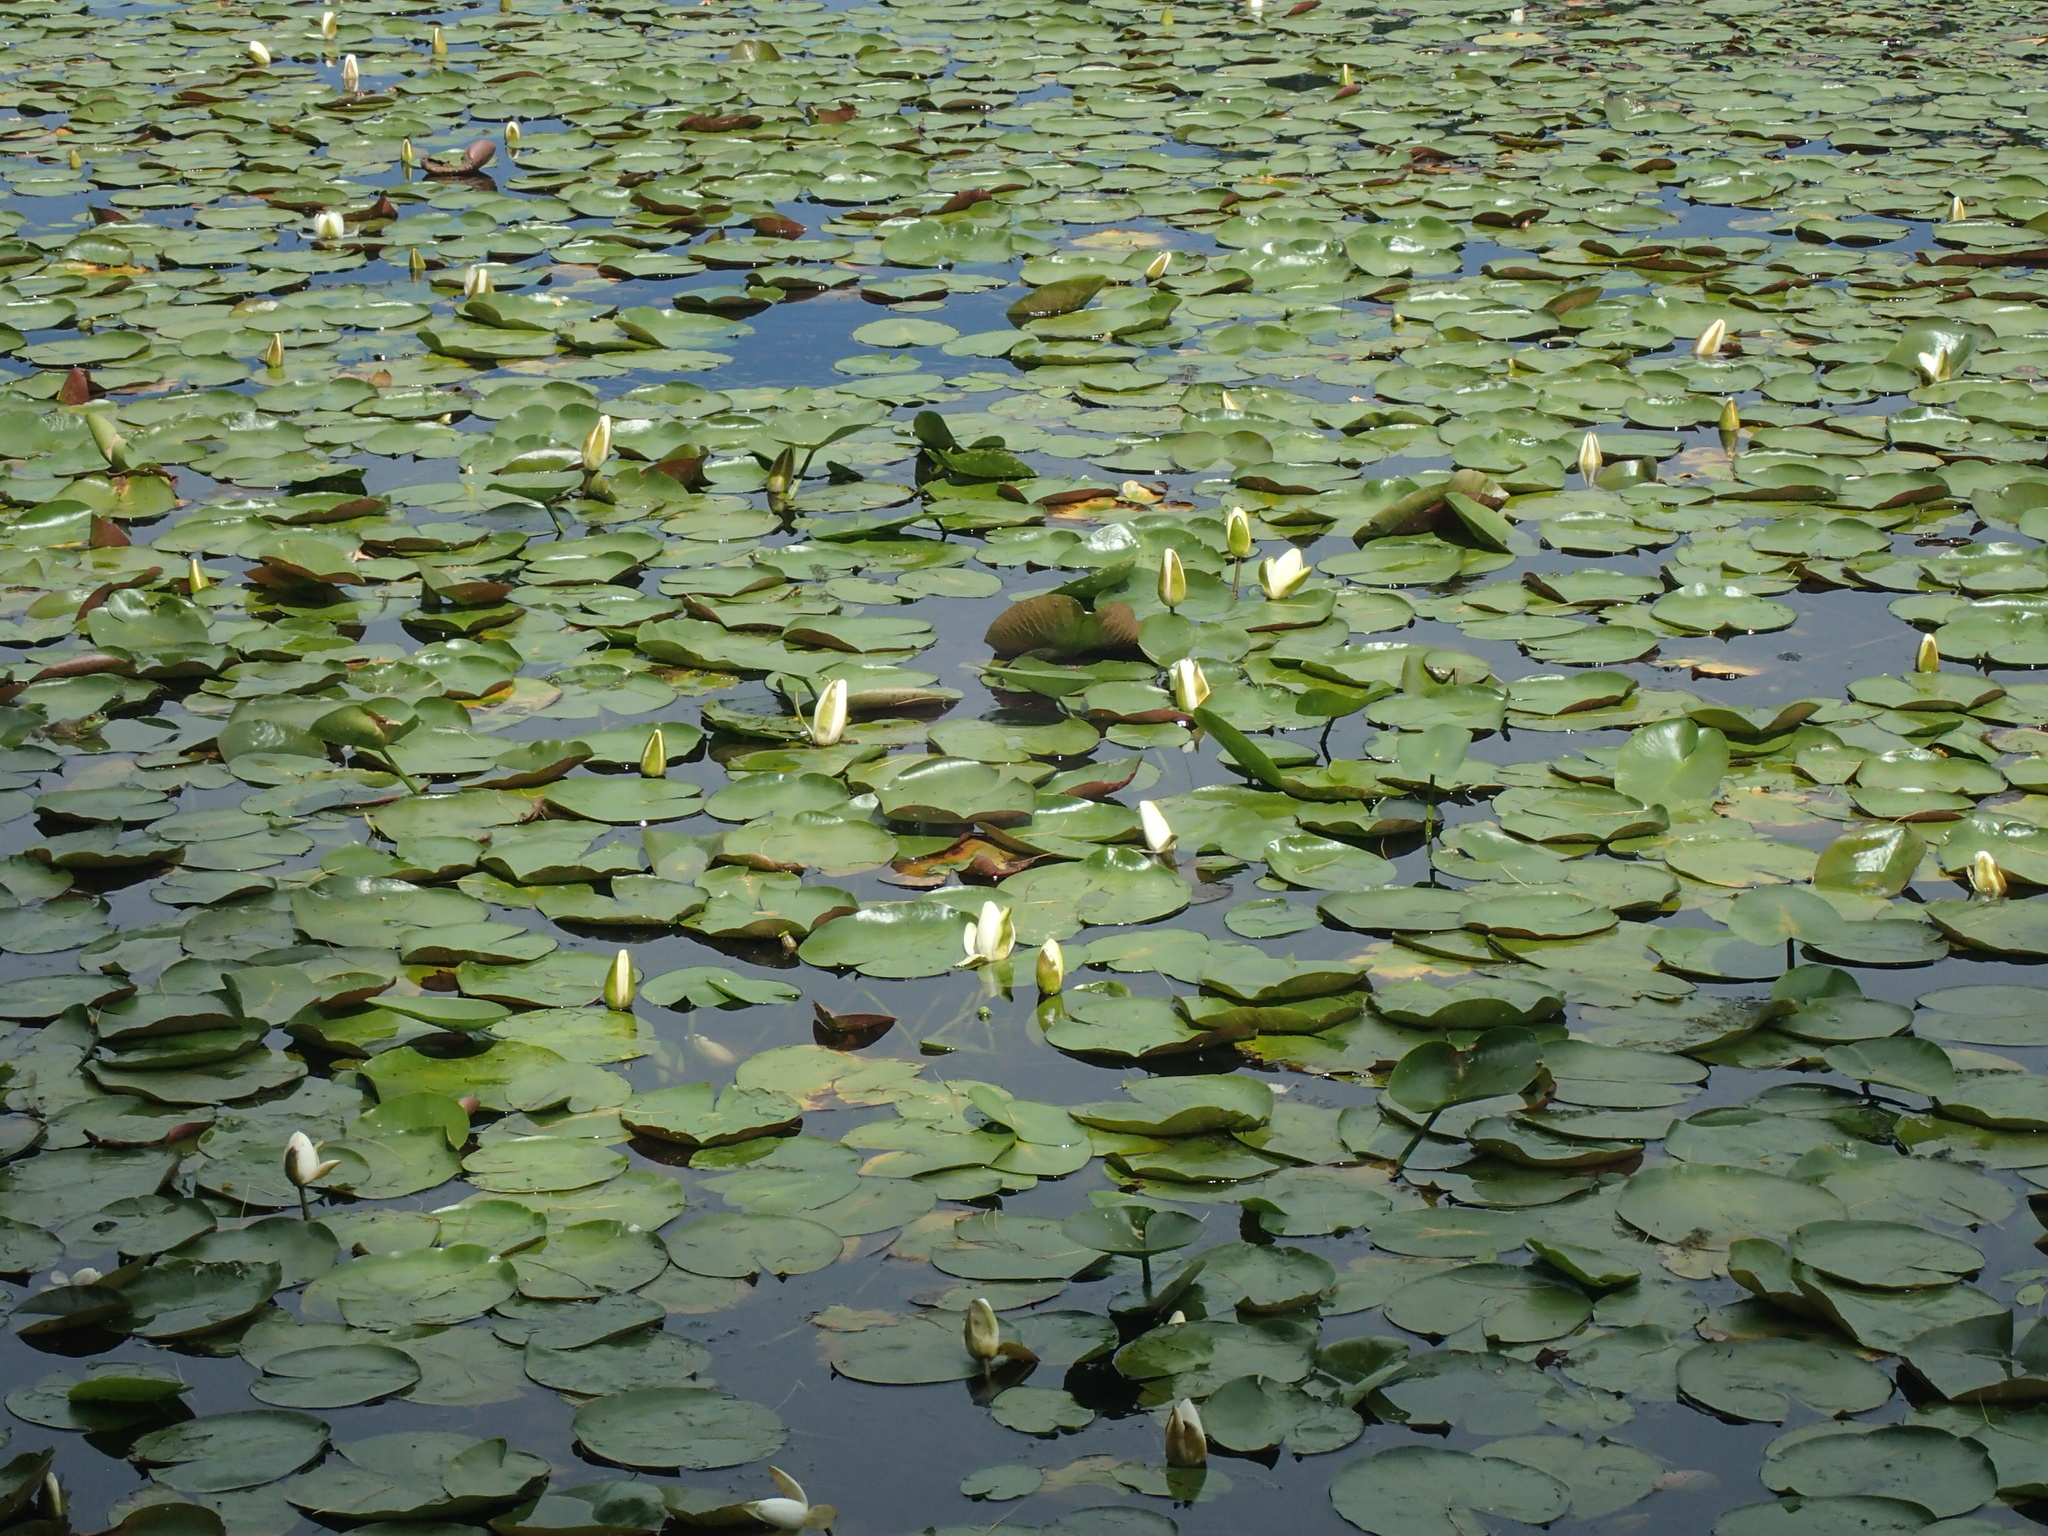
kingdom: Plantae
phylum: Tracheophyta
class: Magnoliopsida
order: Nymphaeales
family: Nymphaeaceae
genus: Nymphaea
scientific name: Nymphaea odorata
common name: Fragrant water-lily
